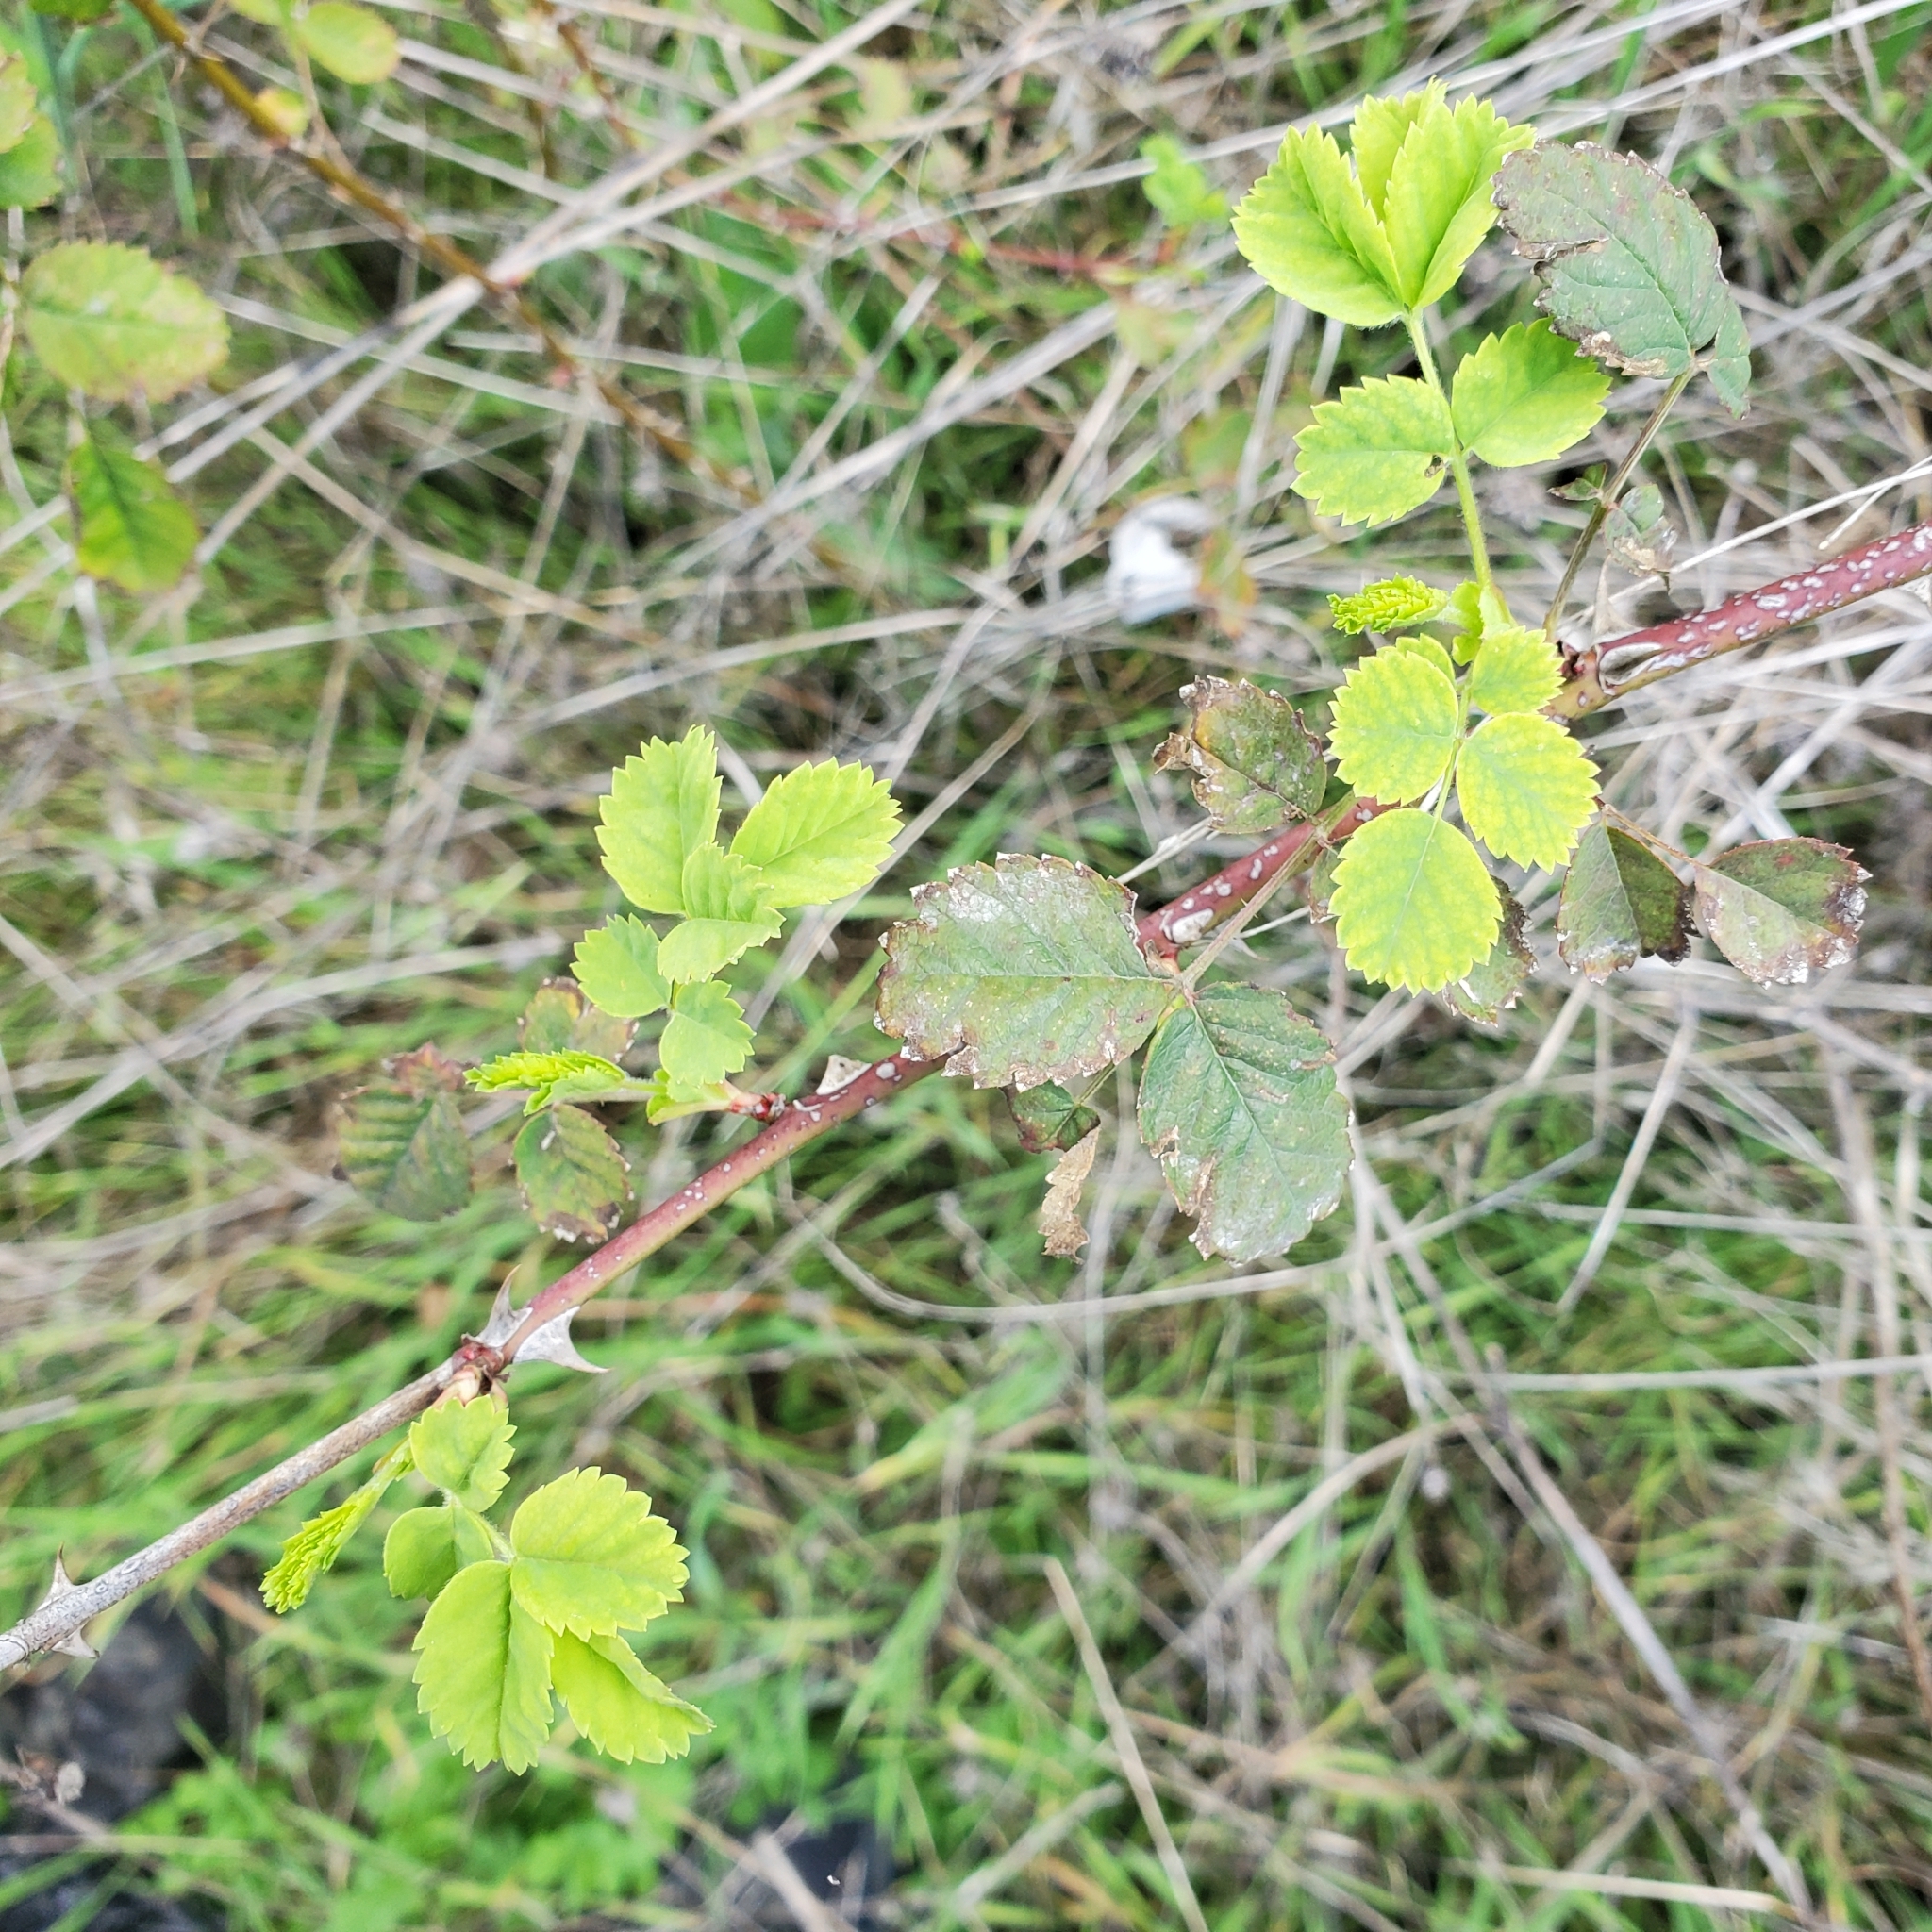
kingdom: Plantae
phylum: Tracheophyta
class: Magnoliopsida
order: Rosales
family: Rosaceae
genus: Rosa
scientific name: Rosa californica
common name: California rose
